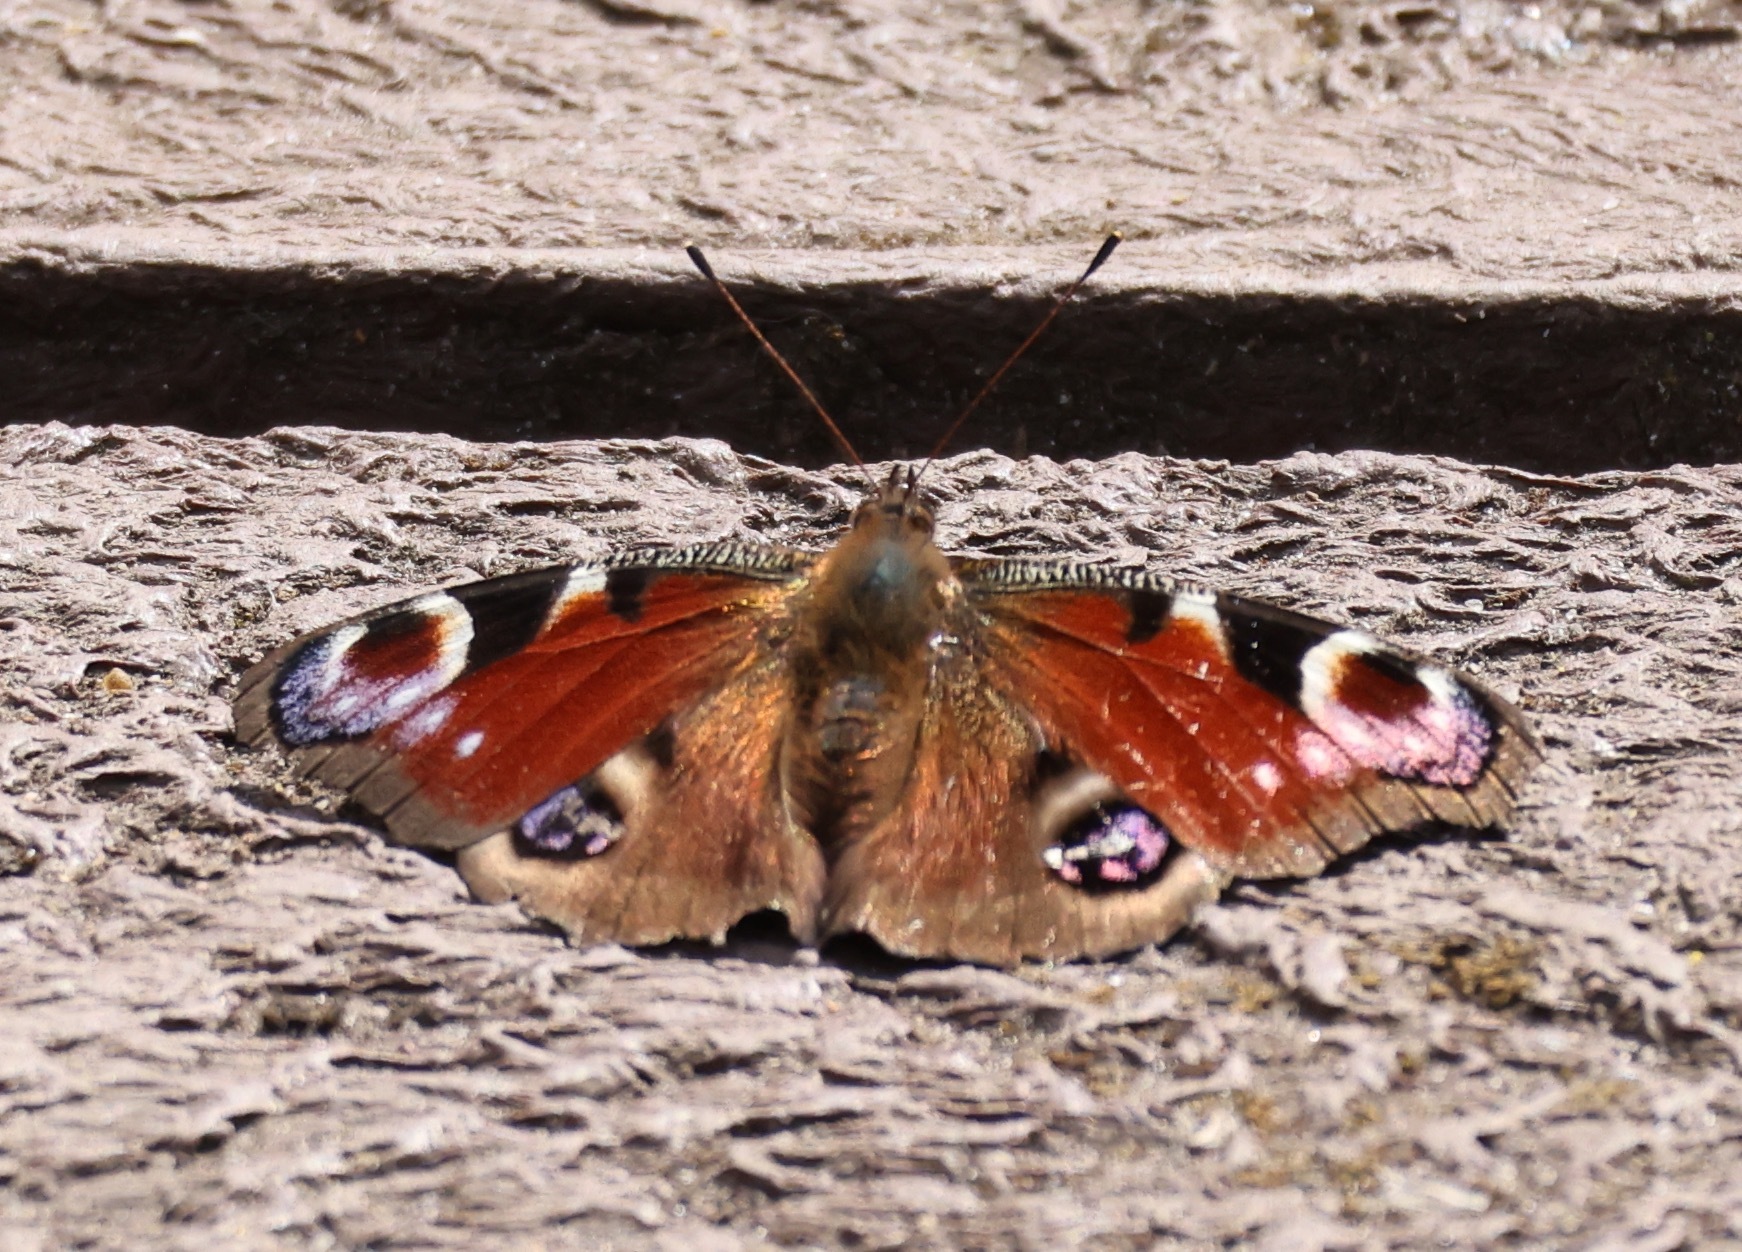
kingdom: Animalia
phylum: Arthropoda
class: Insecta
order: Lepidoptera
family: Nymphalidae
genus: Aglais
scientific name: Aglais io
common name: Peacock
